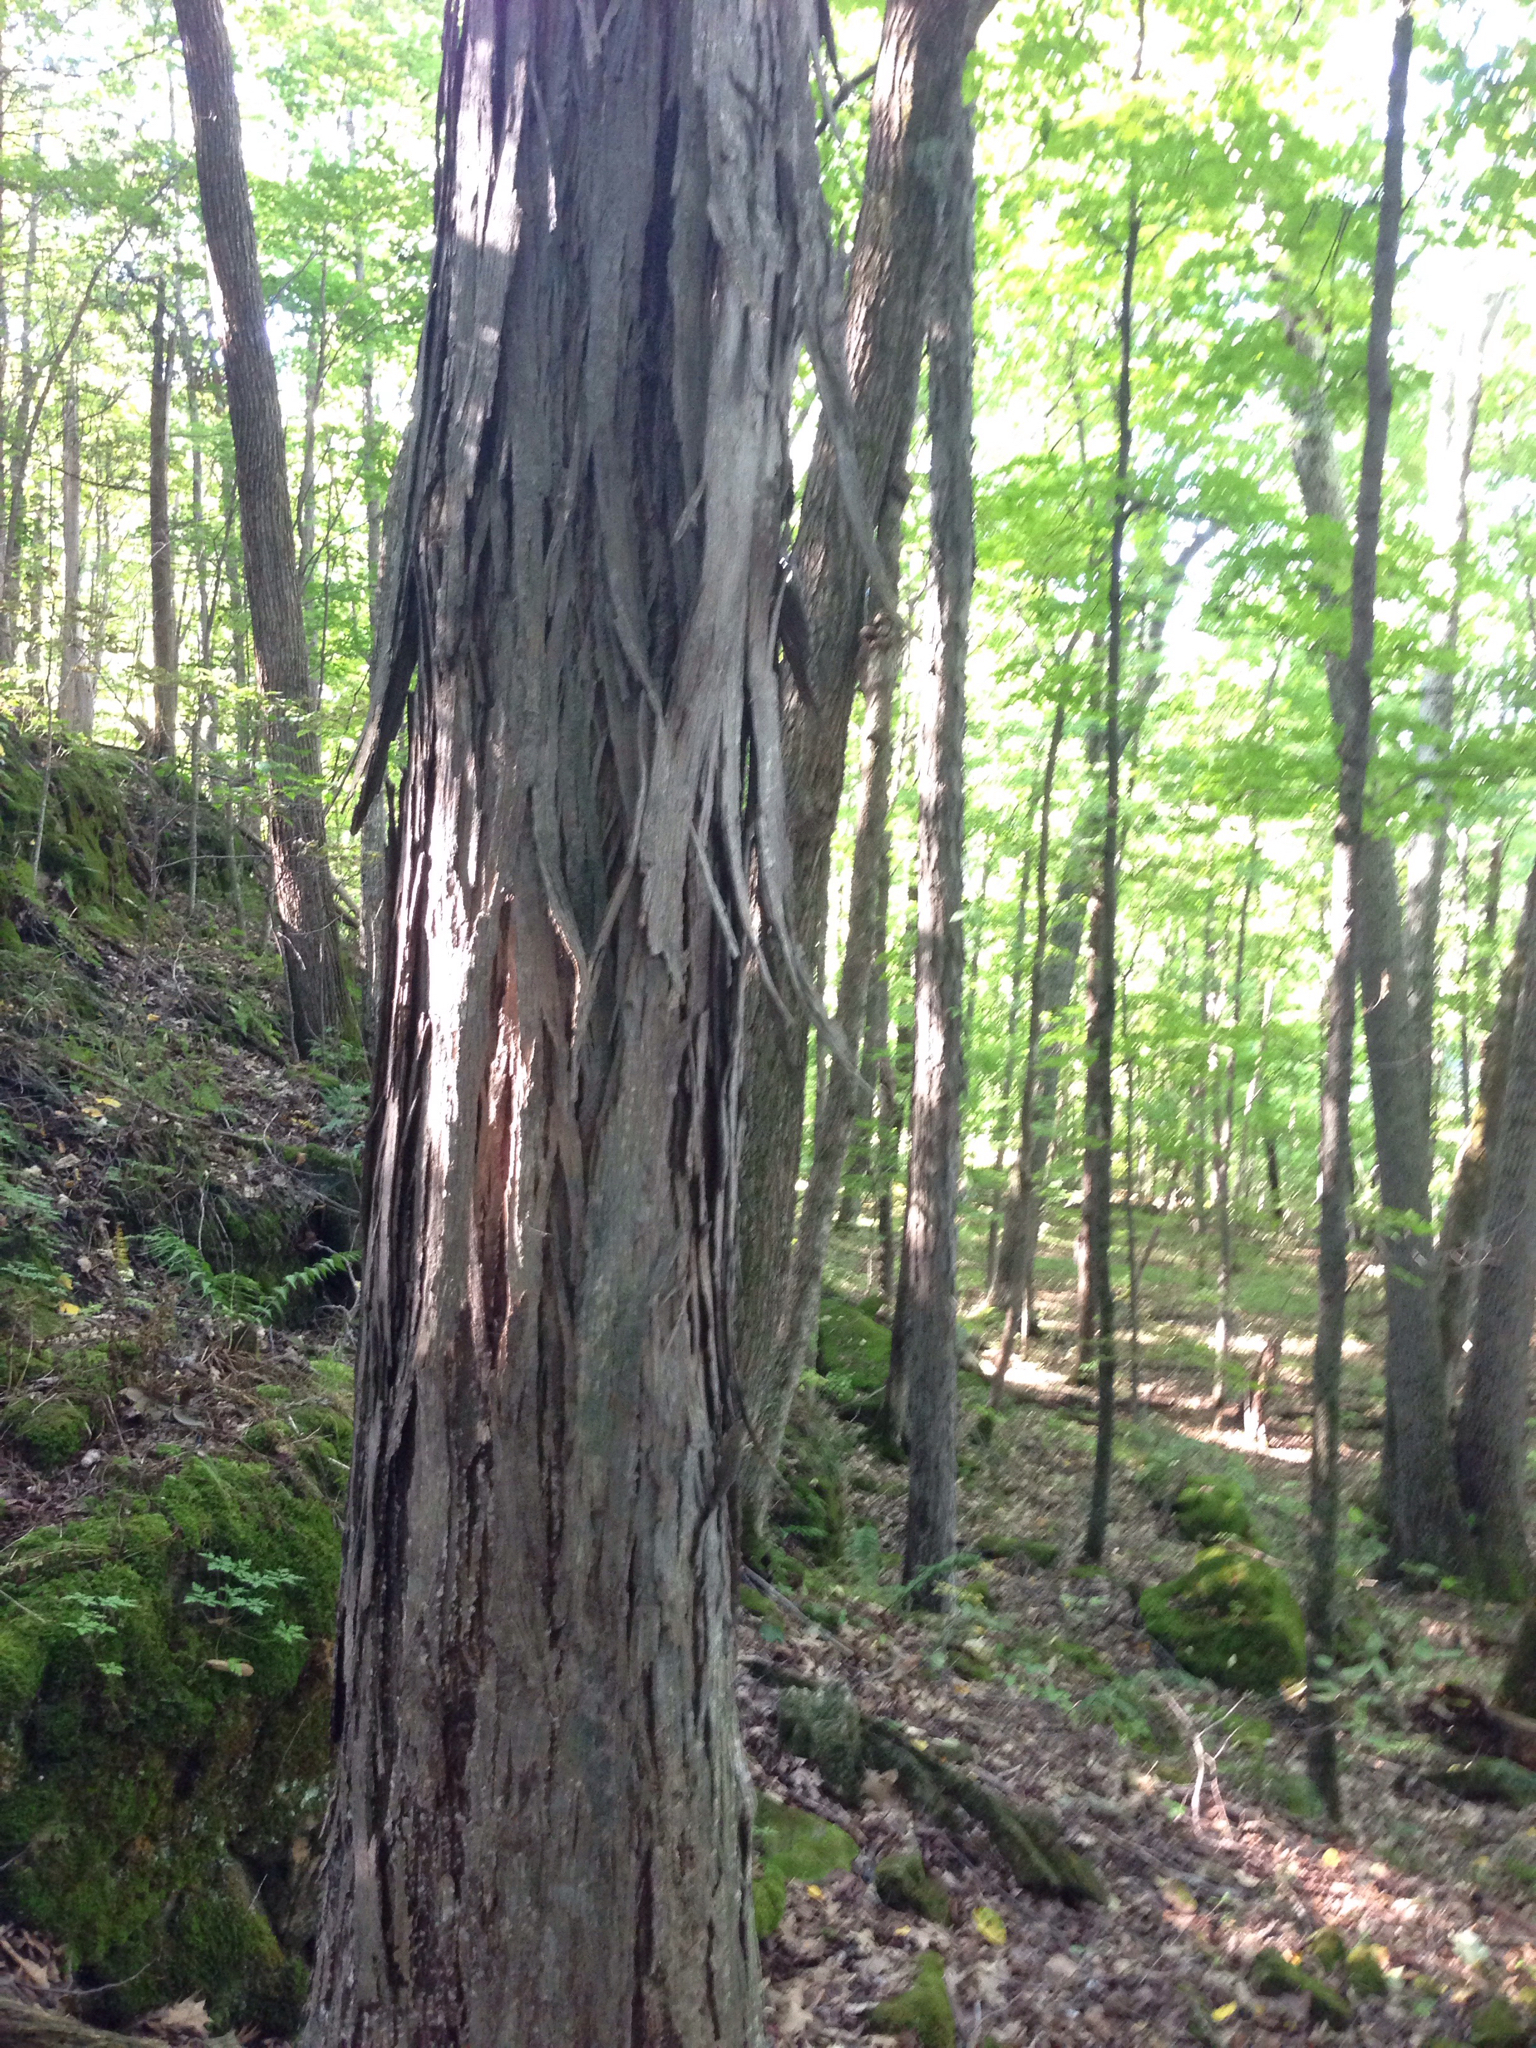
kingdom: Plantae
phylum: Tracheophyta
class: Magnoliopsida
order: Fagales
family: Juglandaceae
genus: Carya
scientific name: Carya ovata
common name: Shagbark hickory
